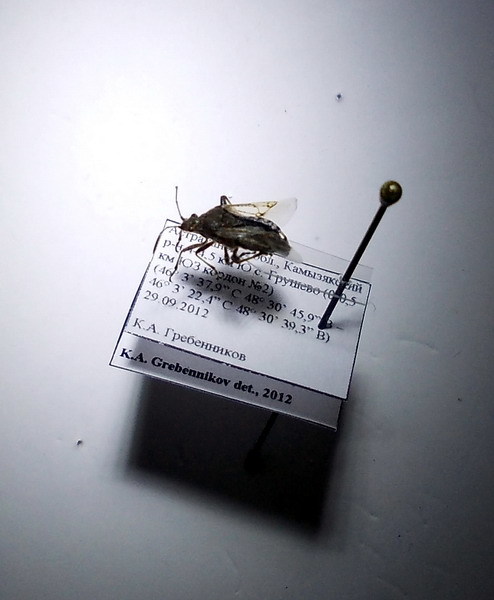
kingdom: Animalia
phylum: Arthropoda
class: Insecta
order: Hemiptera
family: Rhopalidae
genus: Stictopleurus
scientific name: Stictopleurus punctatonervosus
